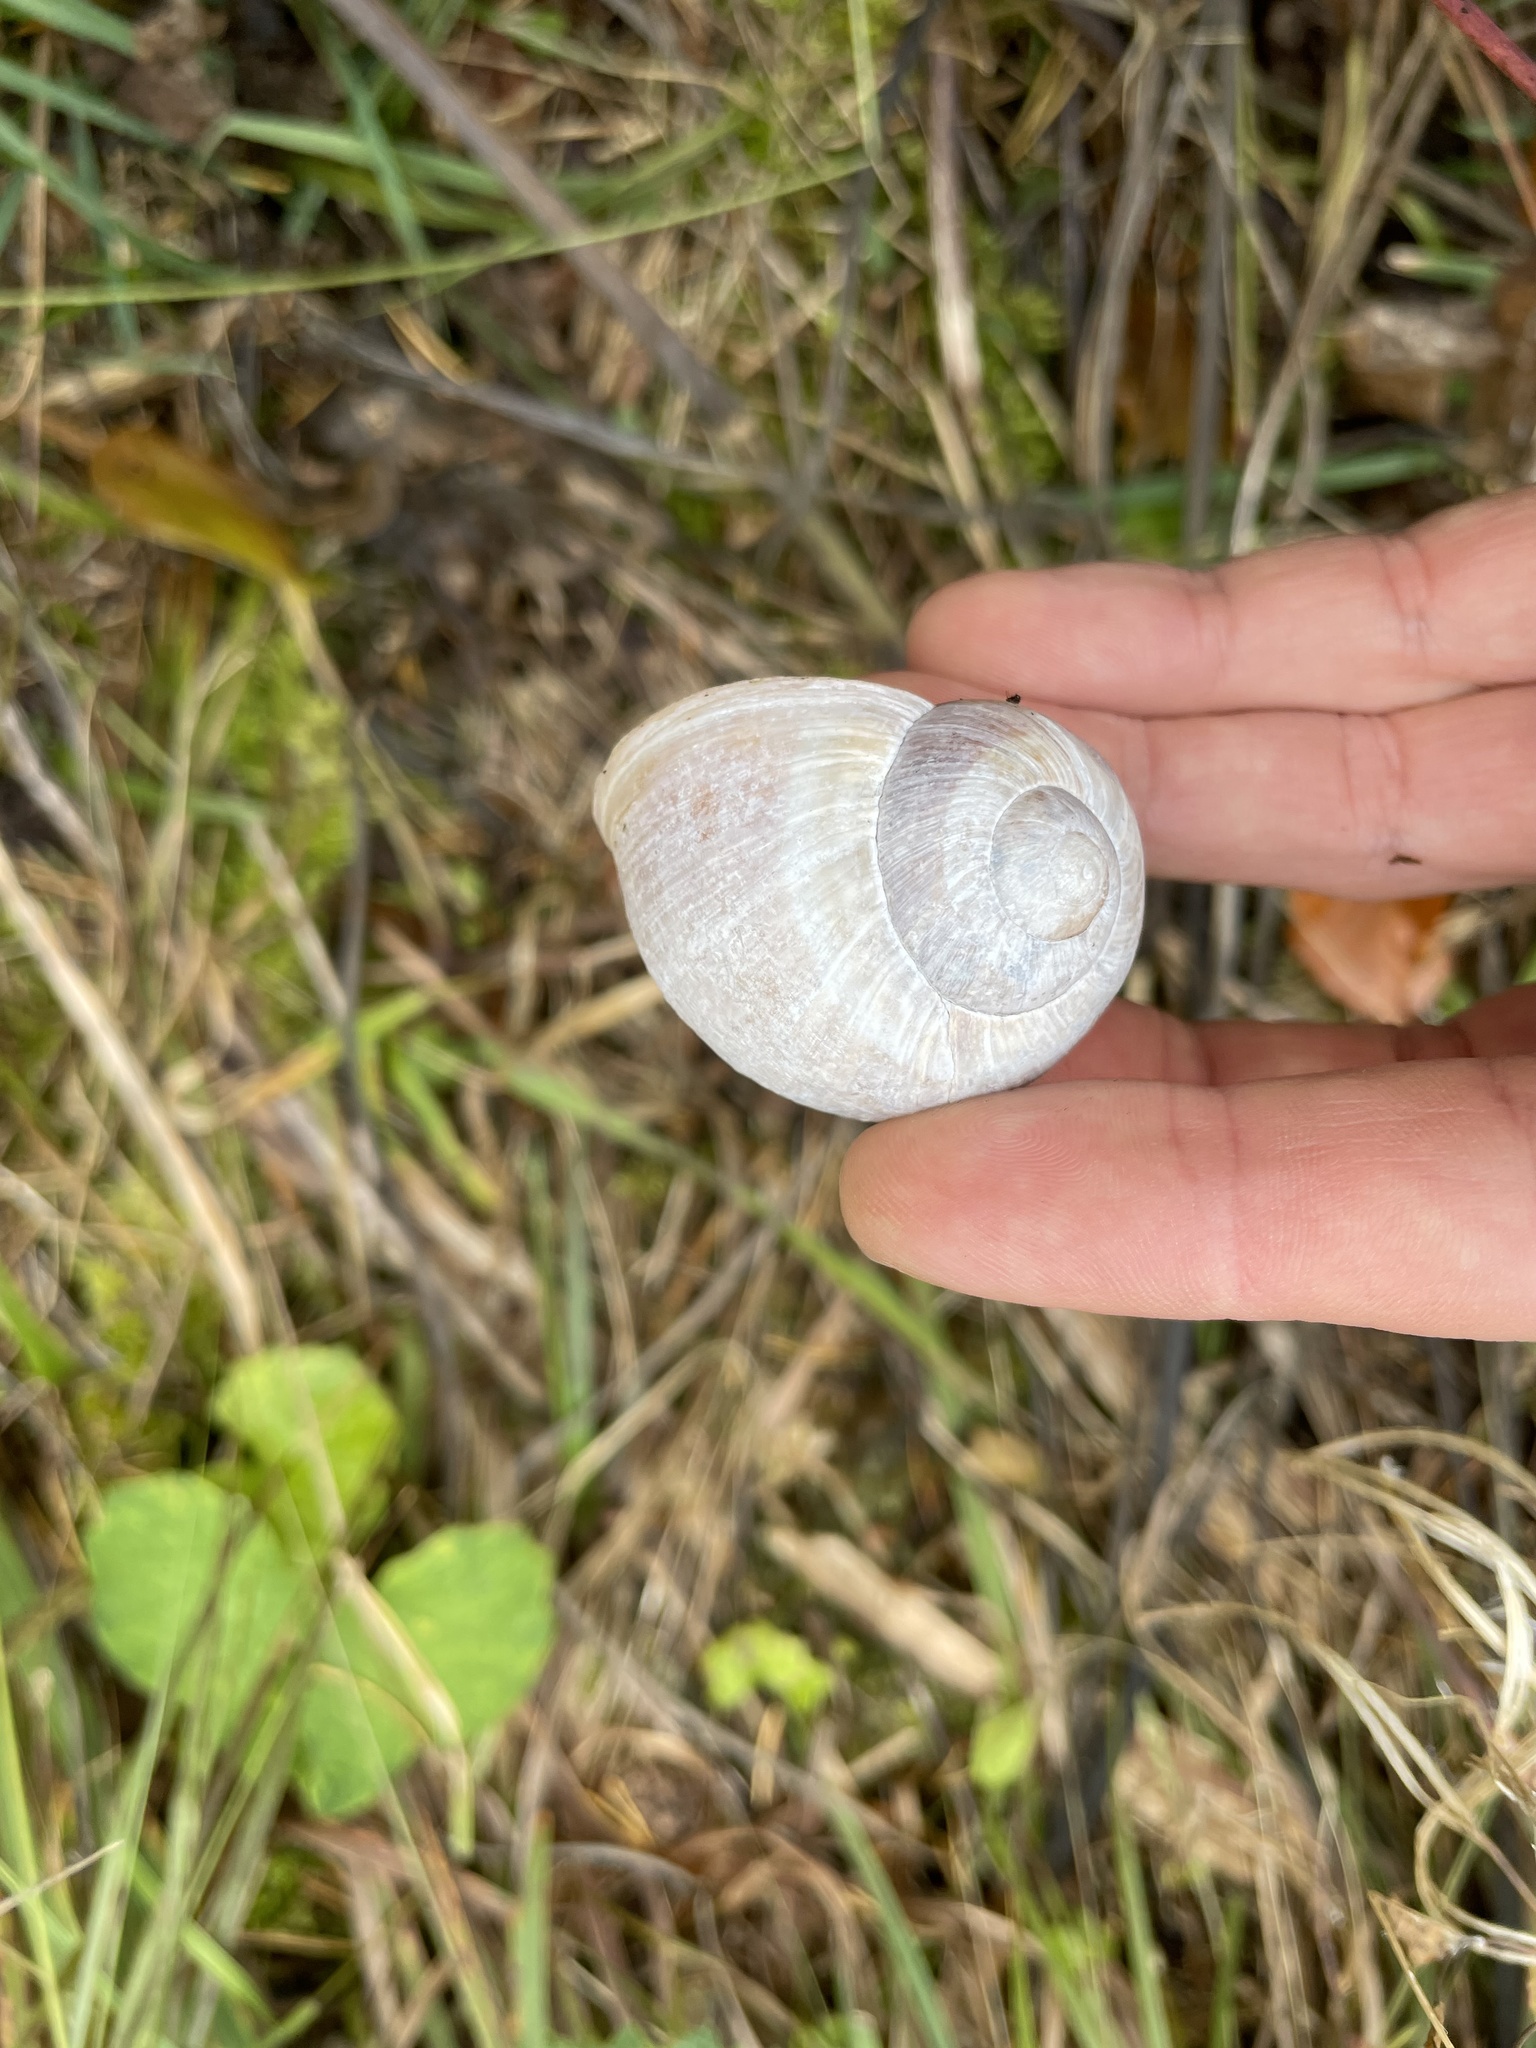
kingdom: Animalia
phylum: Mollusca
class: Gastropoda
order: Stylommatophora
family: Helicidae
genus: Helix
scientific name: Helix pomatia
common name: Roman snail
